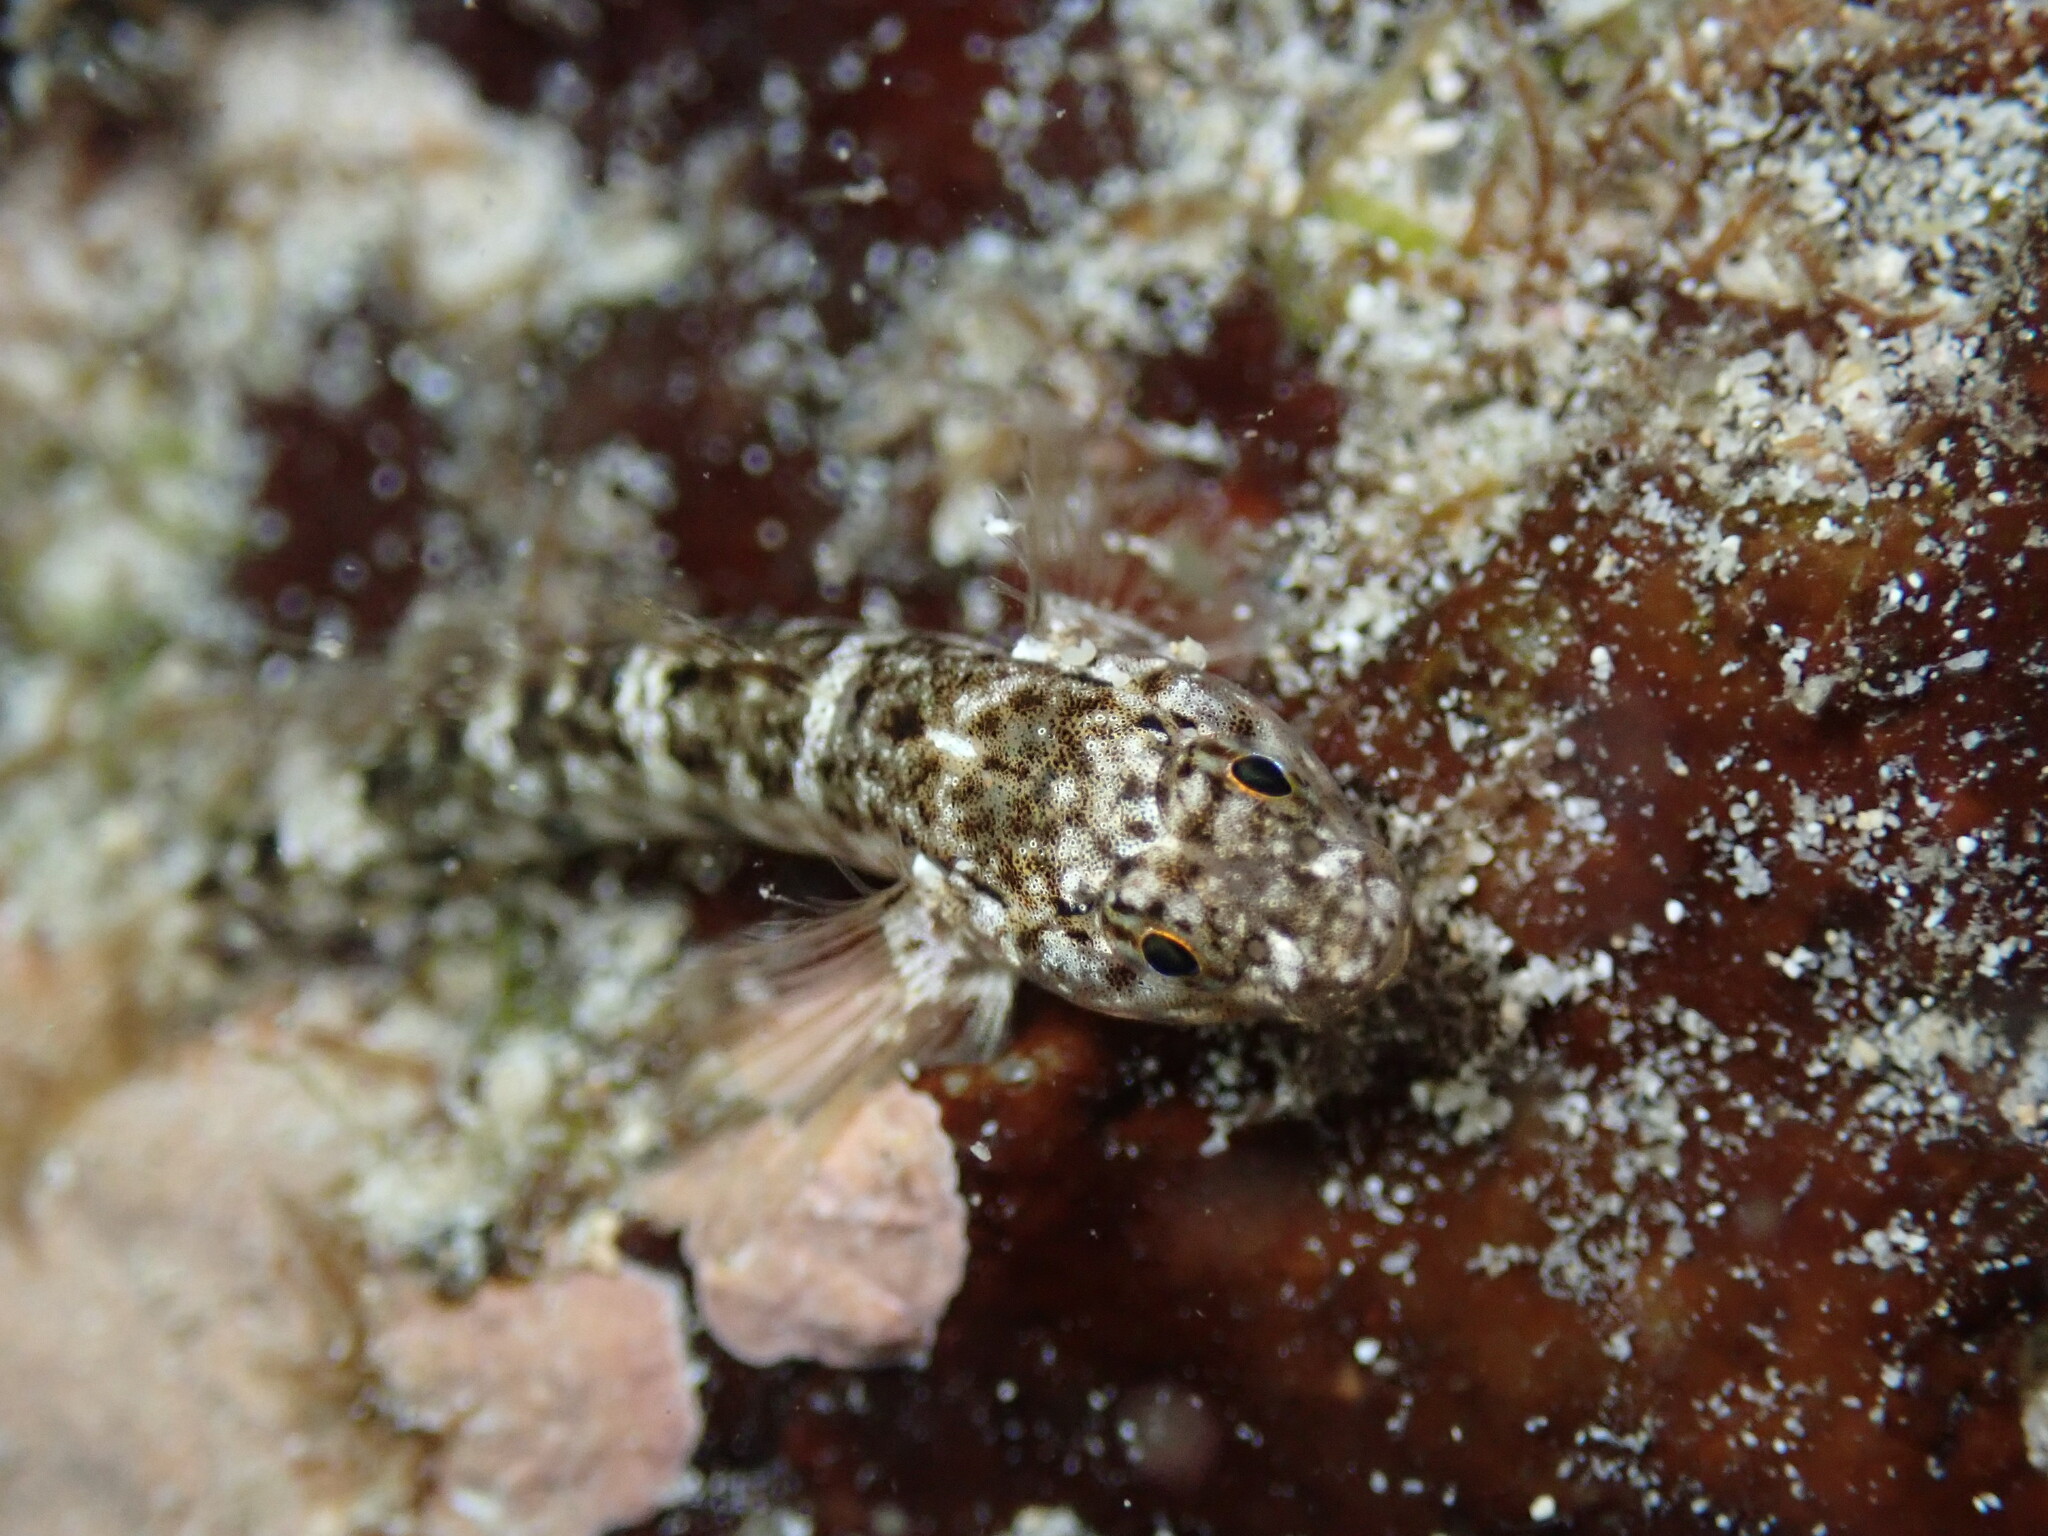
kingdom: Animalia
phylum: Chordata
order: Perciformes
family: Gobiidae
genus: Bathygobius
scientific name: Bathygobius cocosensis
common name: Cocos frillgoby
